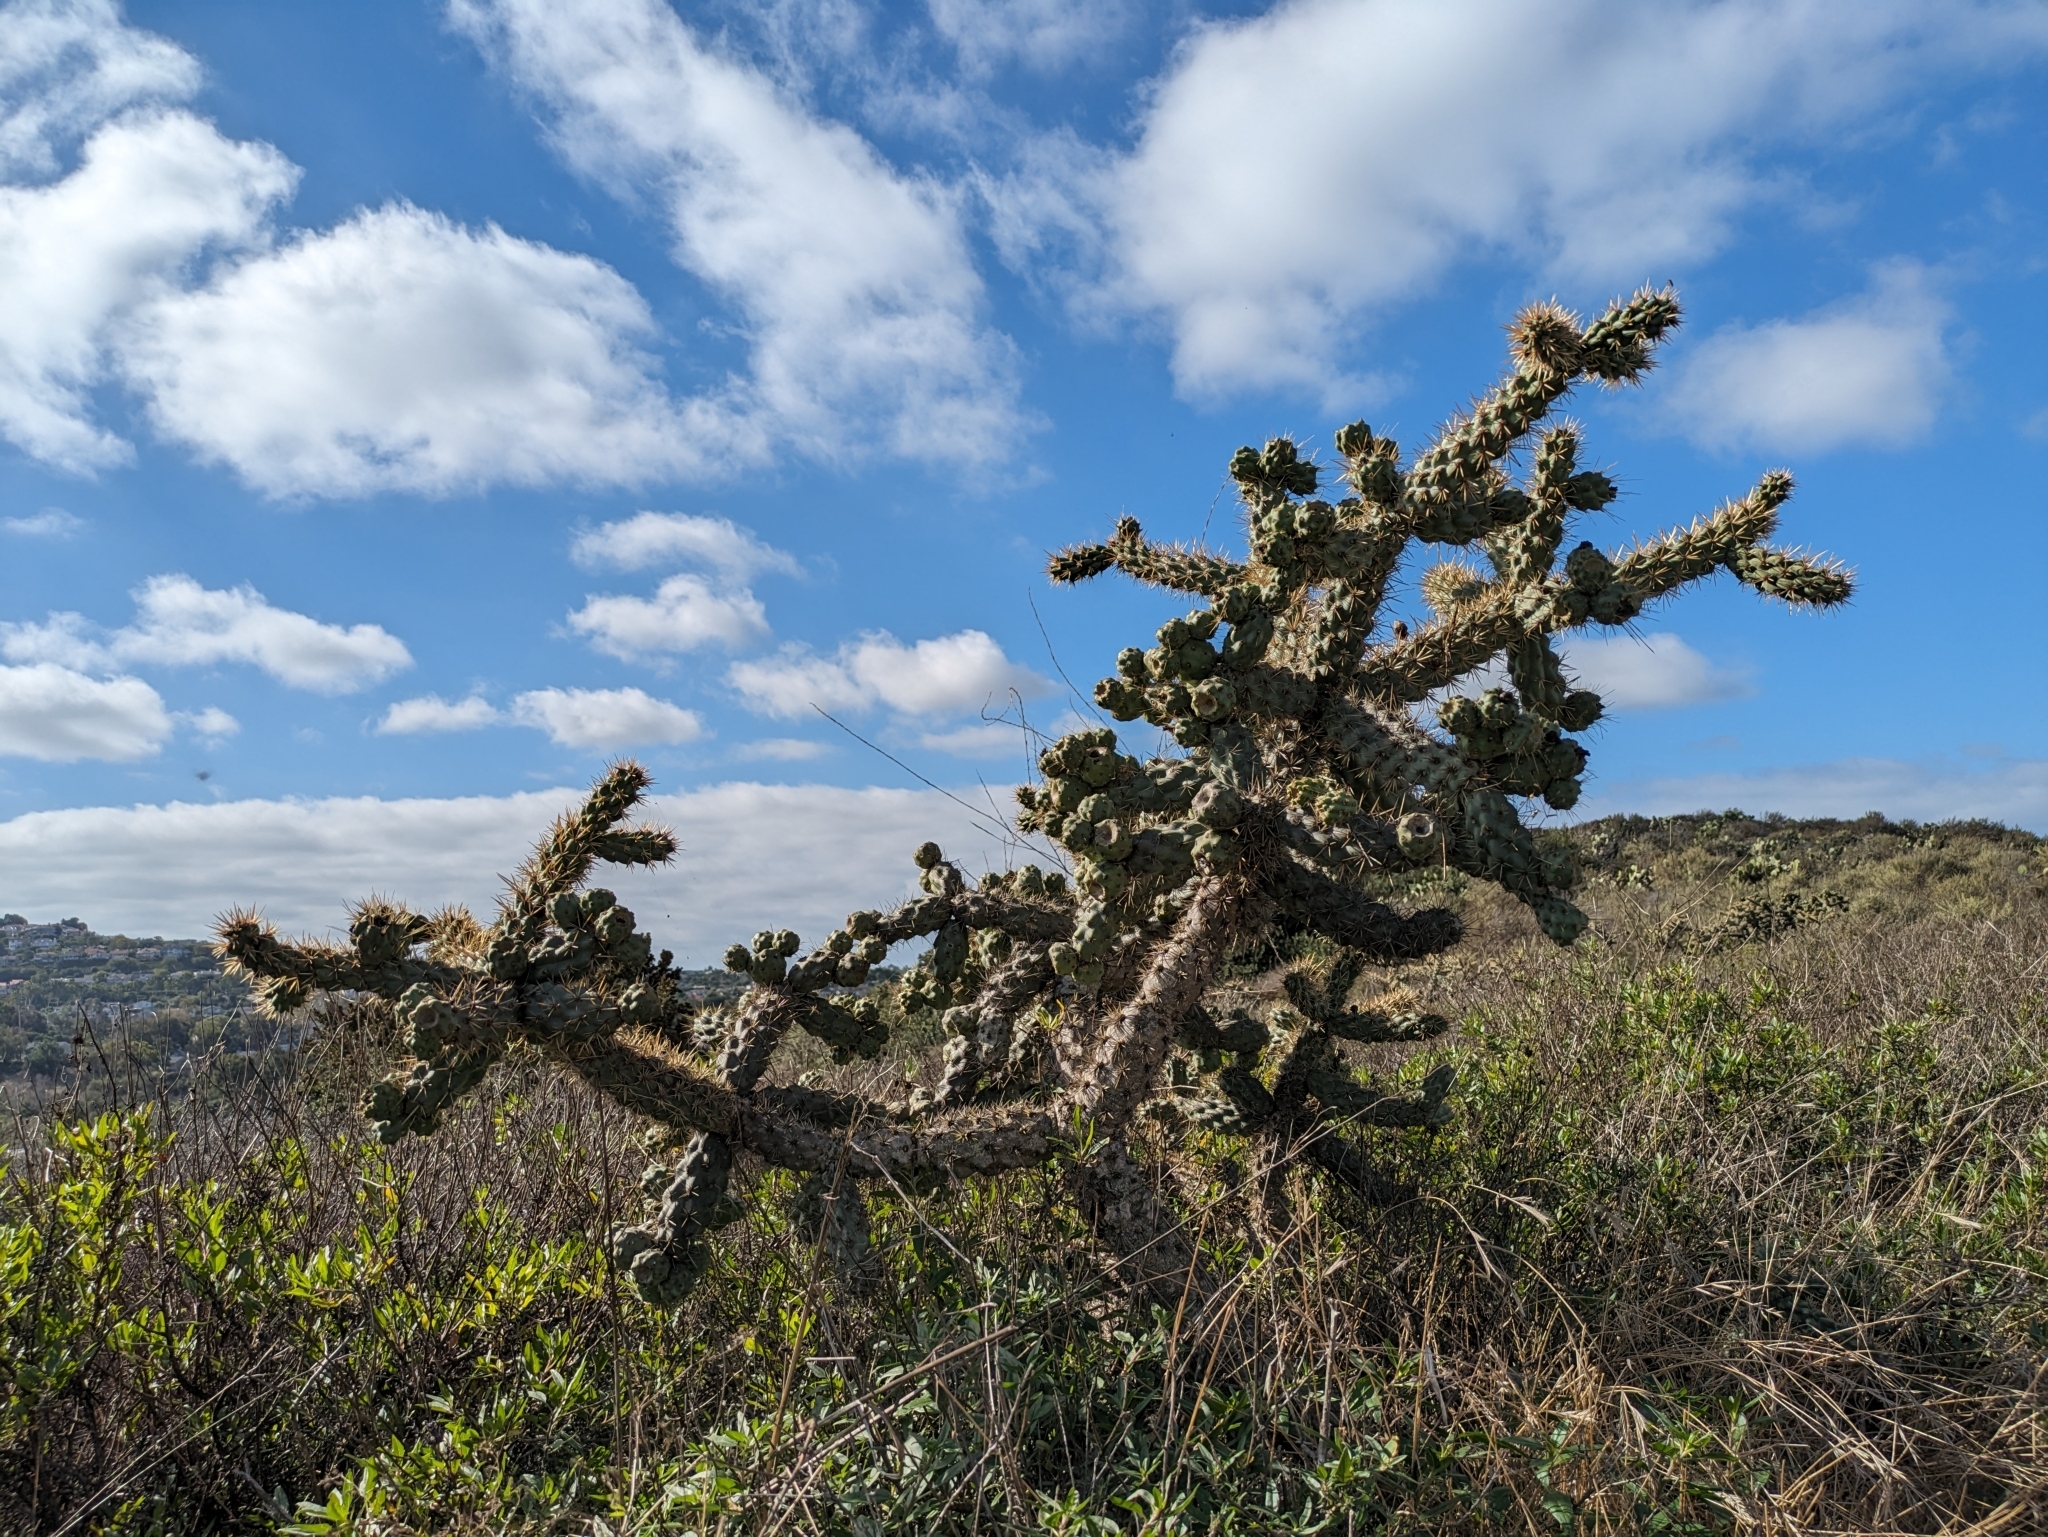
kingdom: Plantae
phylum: Tracheophyta
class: Magnoliopsida
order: Caryophyllales
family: Cactaceae
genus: Cylindropuntia
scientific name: Cylindropuntia prolifera
